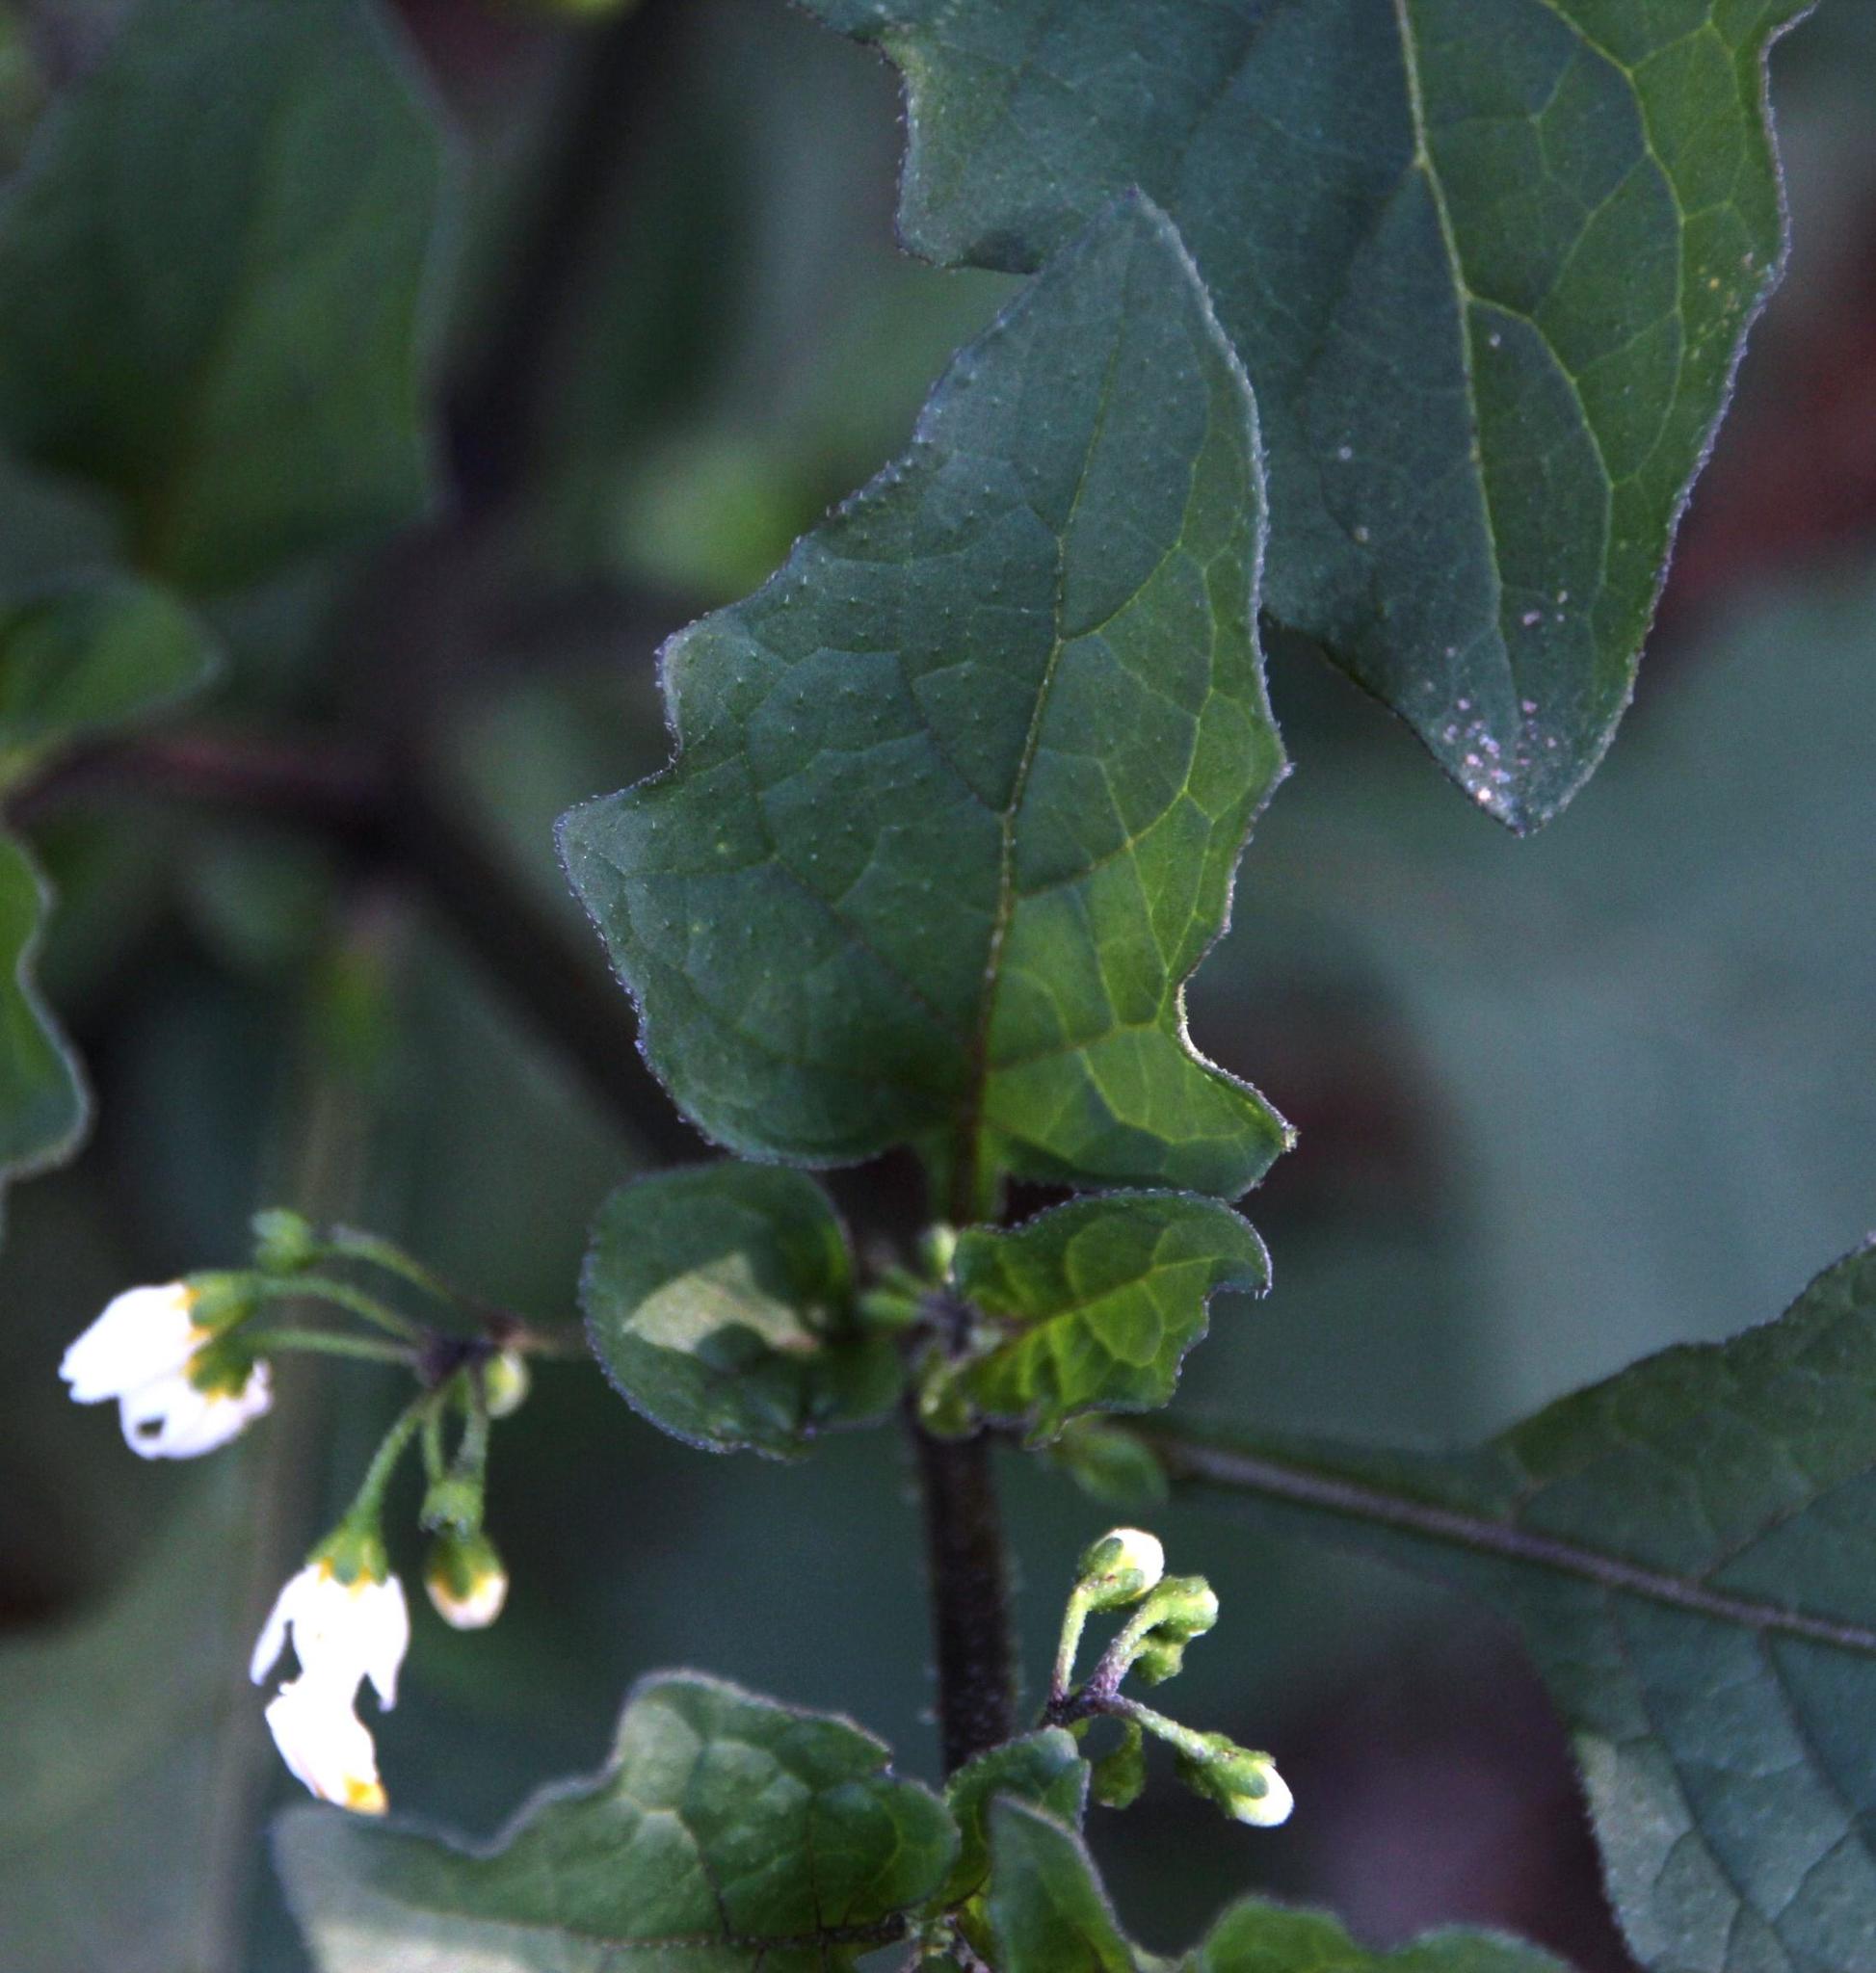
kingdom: Plantae
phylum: Tracheophyta
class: Magnoliopsida
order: Solanales
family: Solanaceae
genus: Solanum
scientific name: Solanum nigrum
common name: Black nightshade
